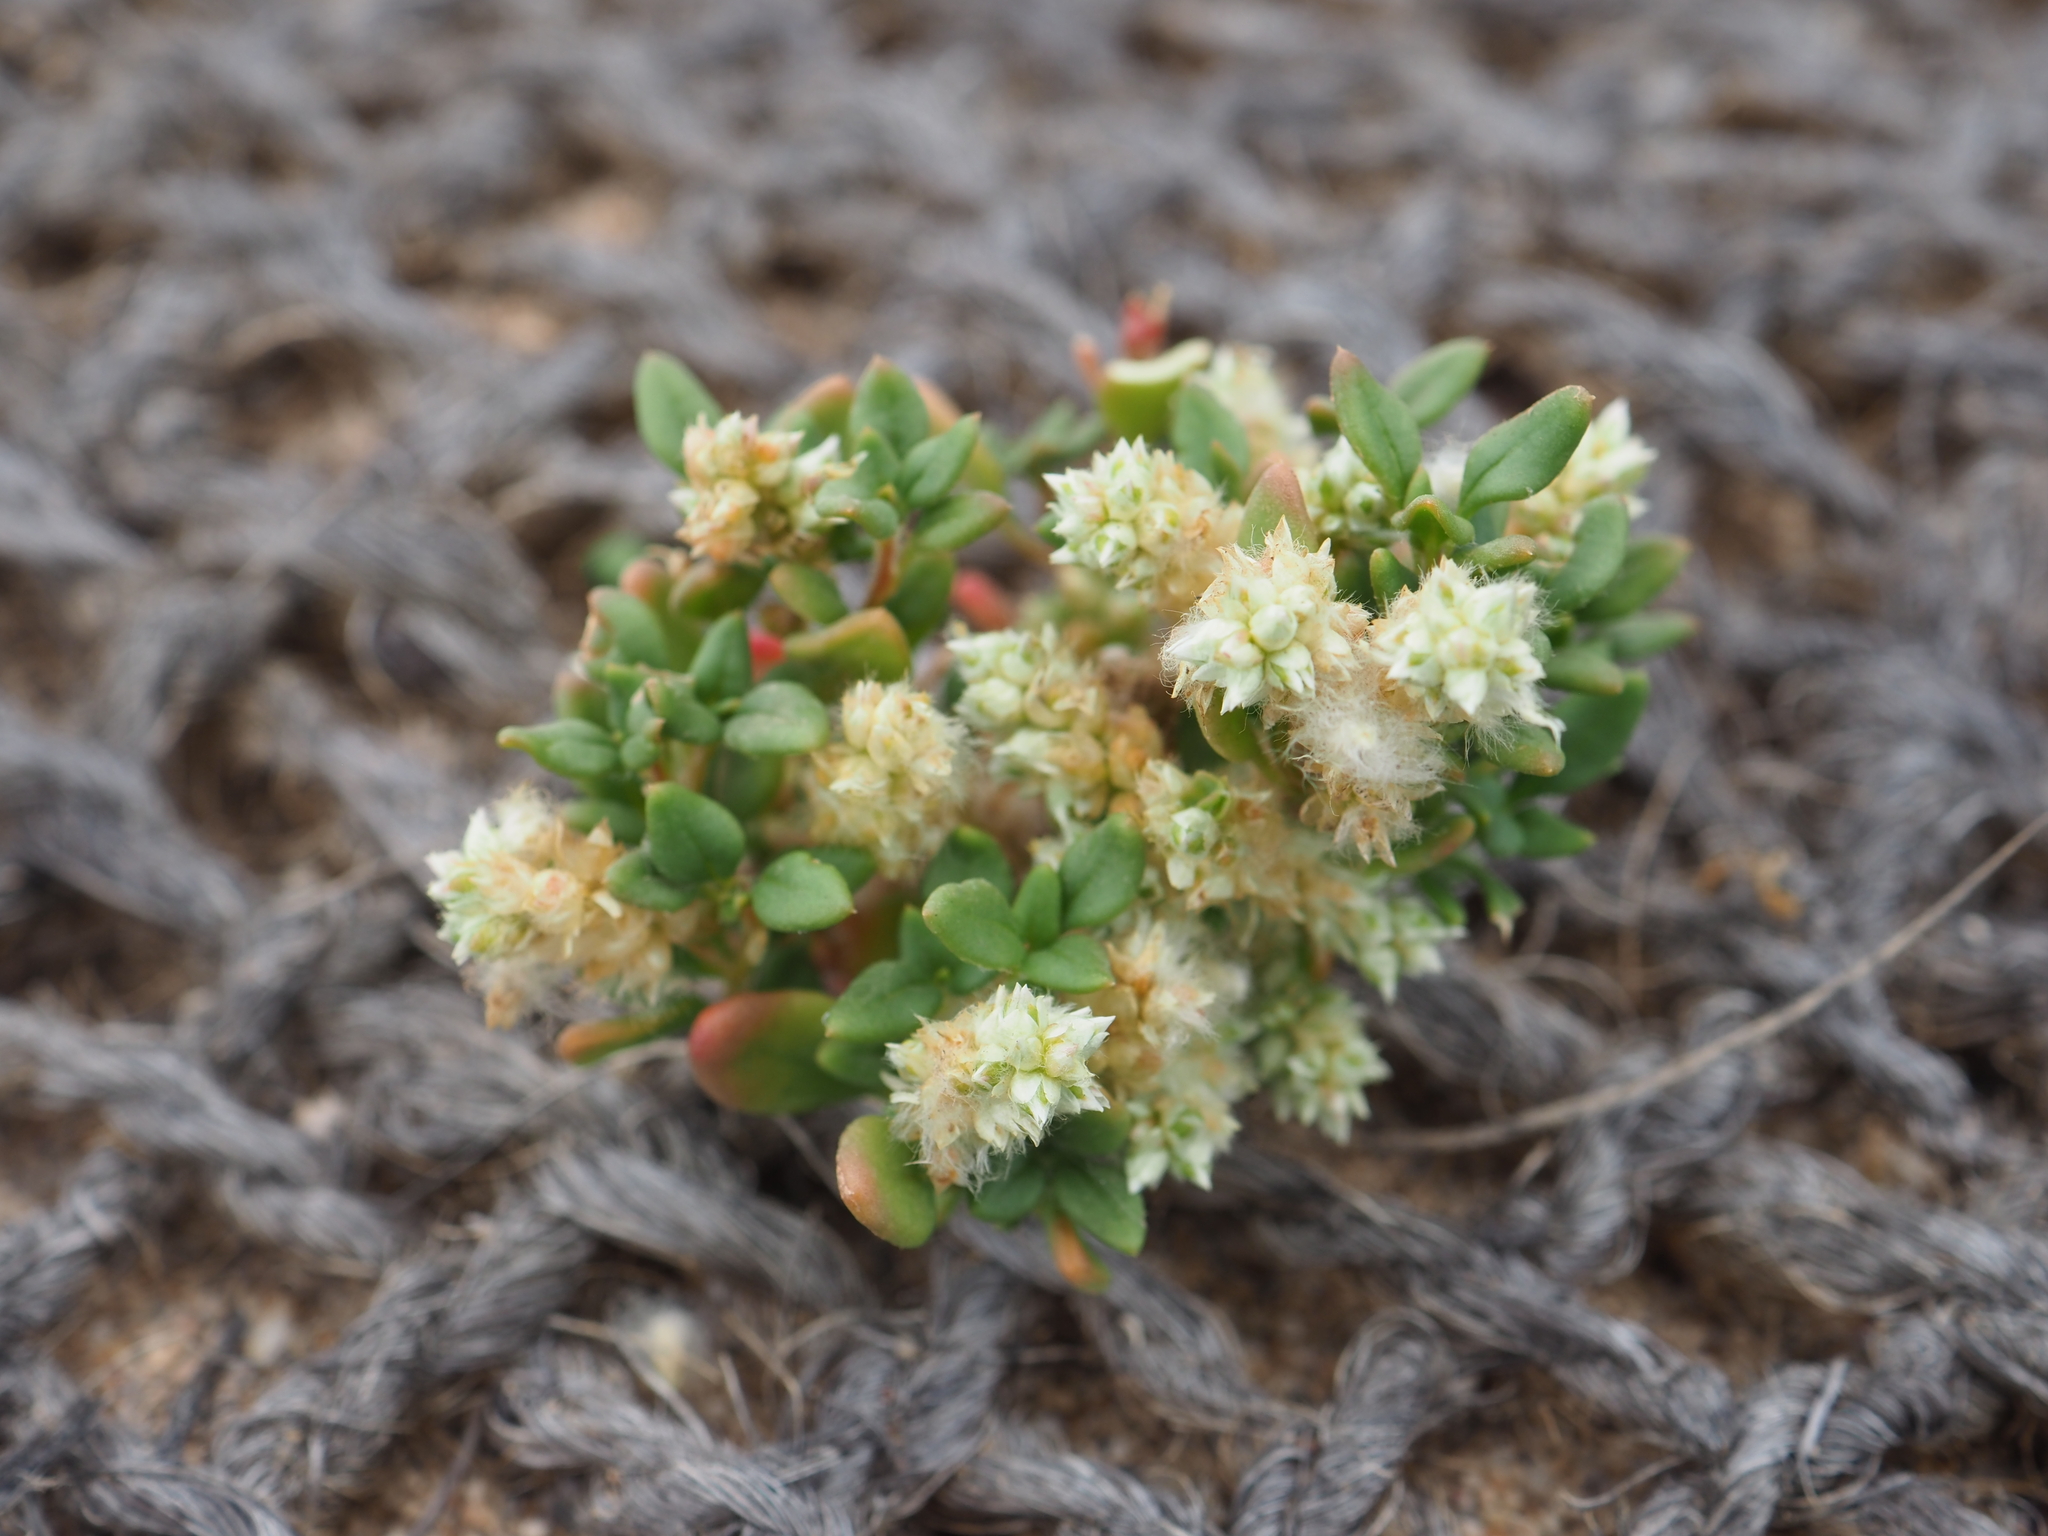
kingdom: Plantae
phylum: Tracheophyta
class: Magnoliopsida
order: Caryophyllales
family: Amaranthaceae
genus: Ptilotus
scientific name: Ptilotus villosiflorus
